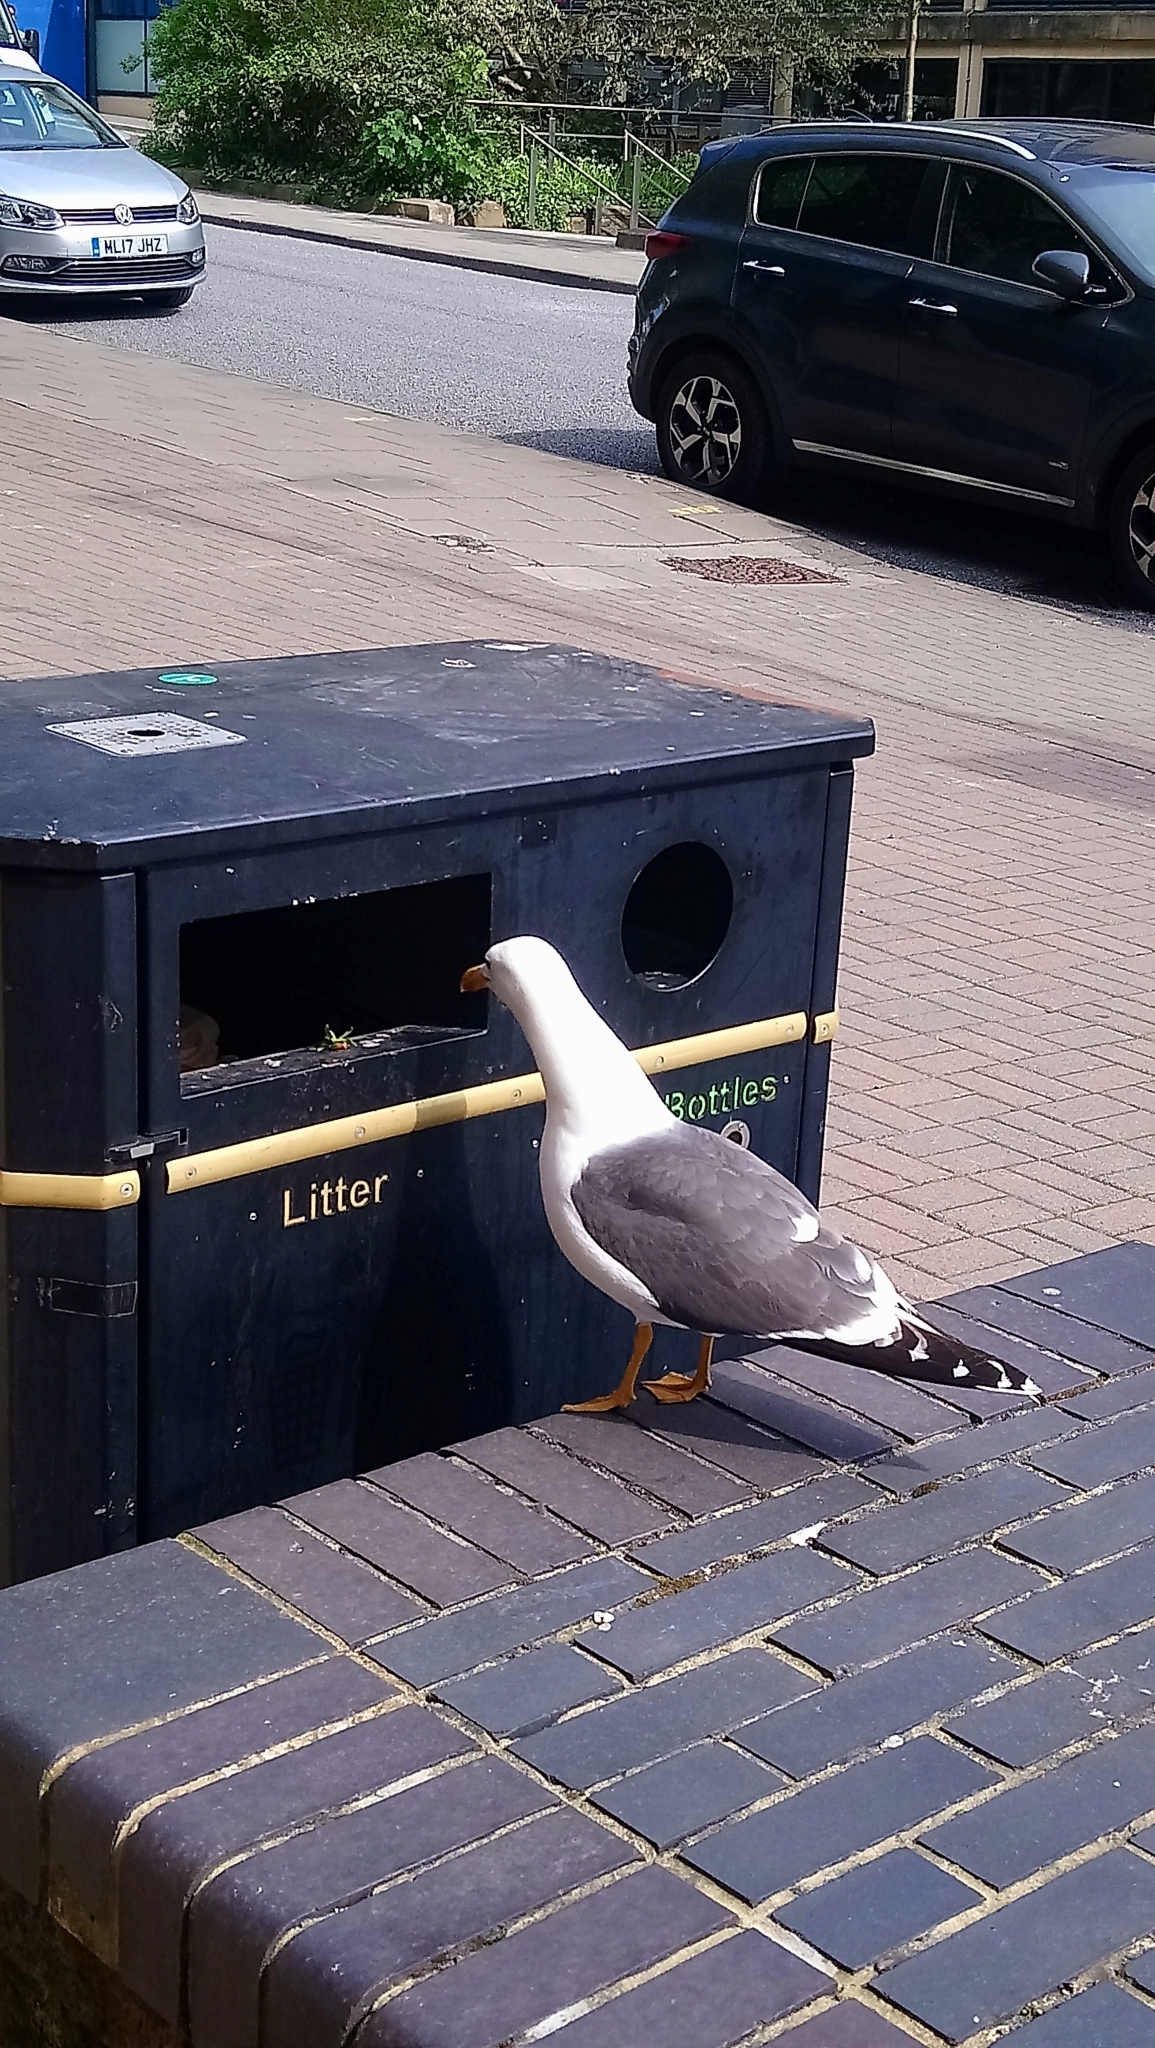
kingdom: Animalia
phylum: Chordata
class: Aves
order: Charadriiformes
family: Laridae
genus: Larus
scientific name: Larus fuscus
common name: Lesser black-backed gull
